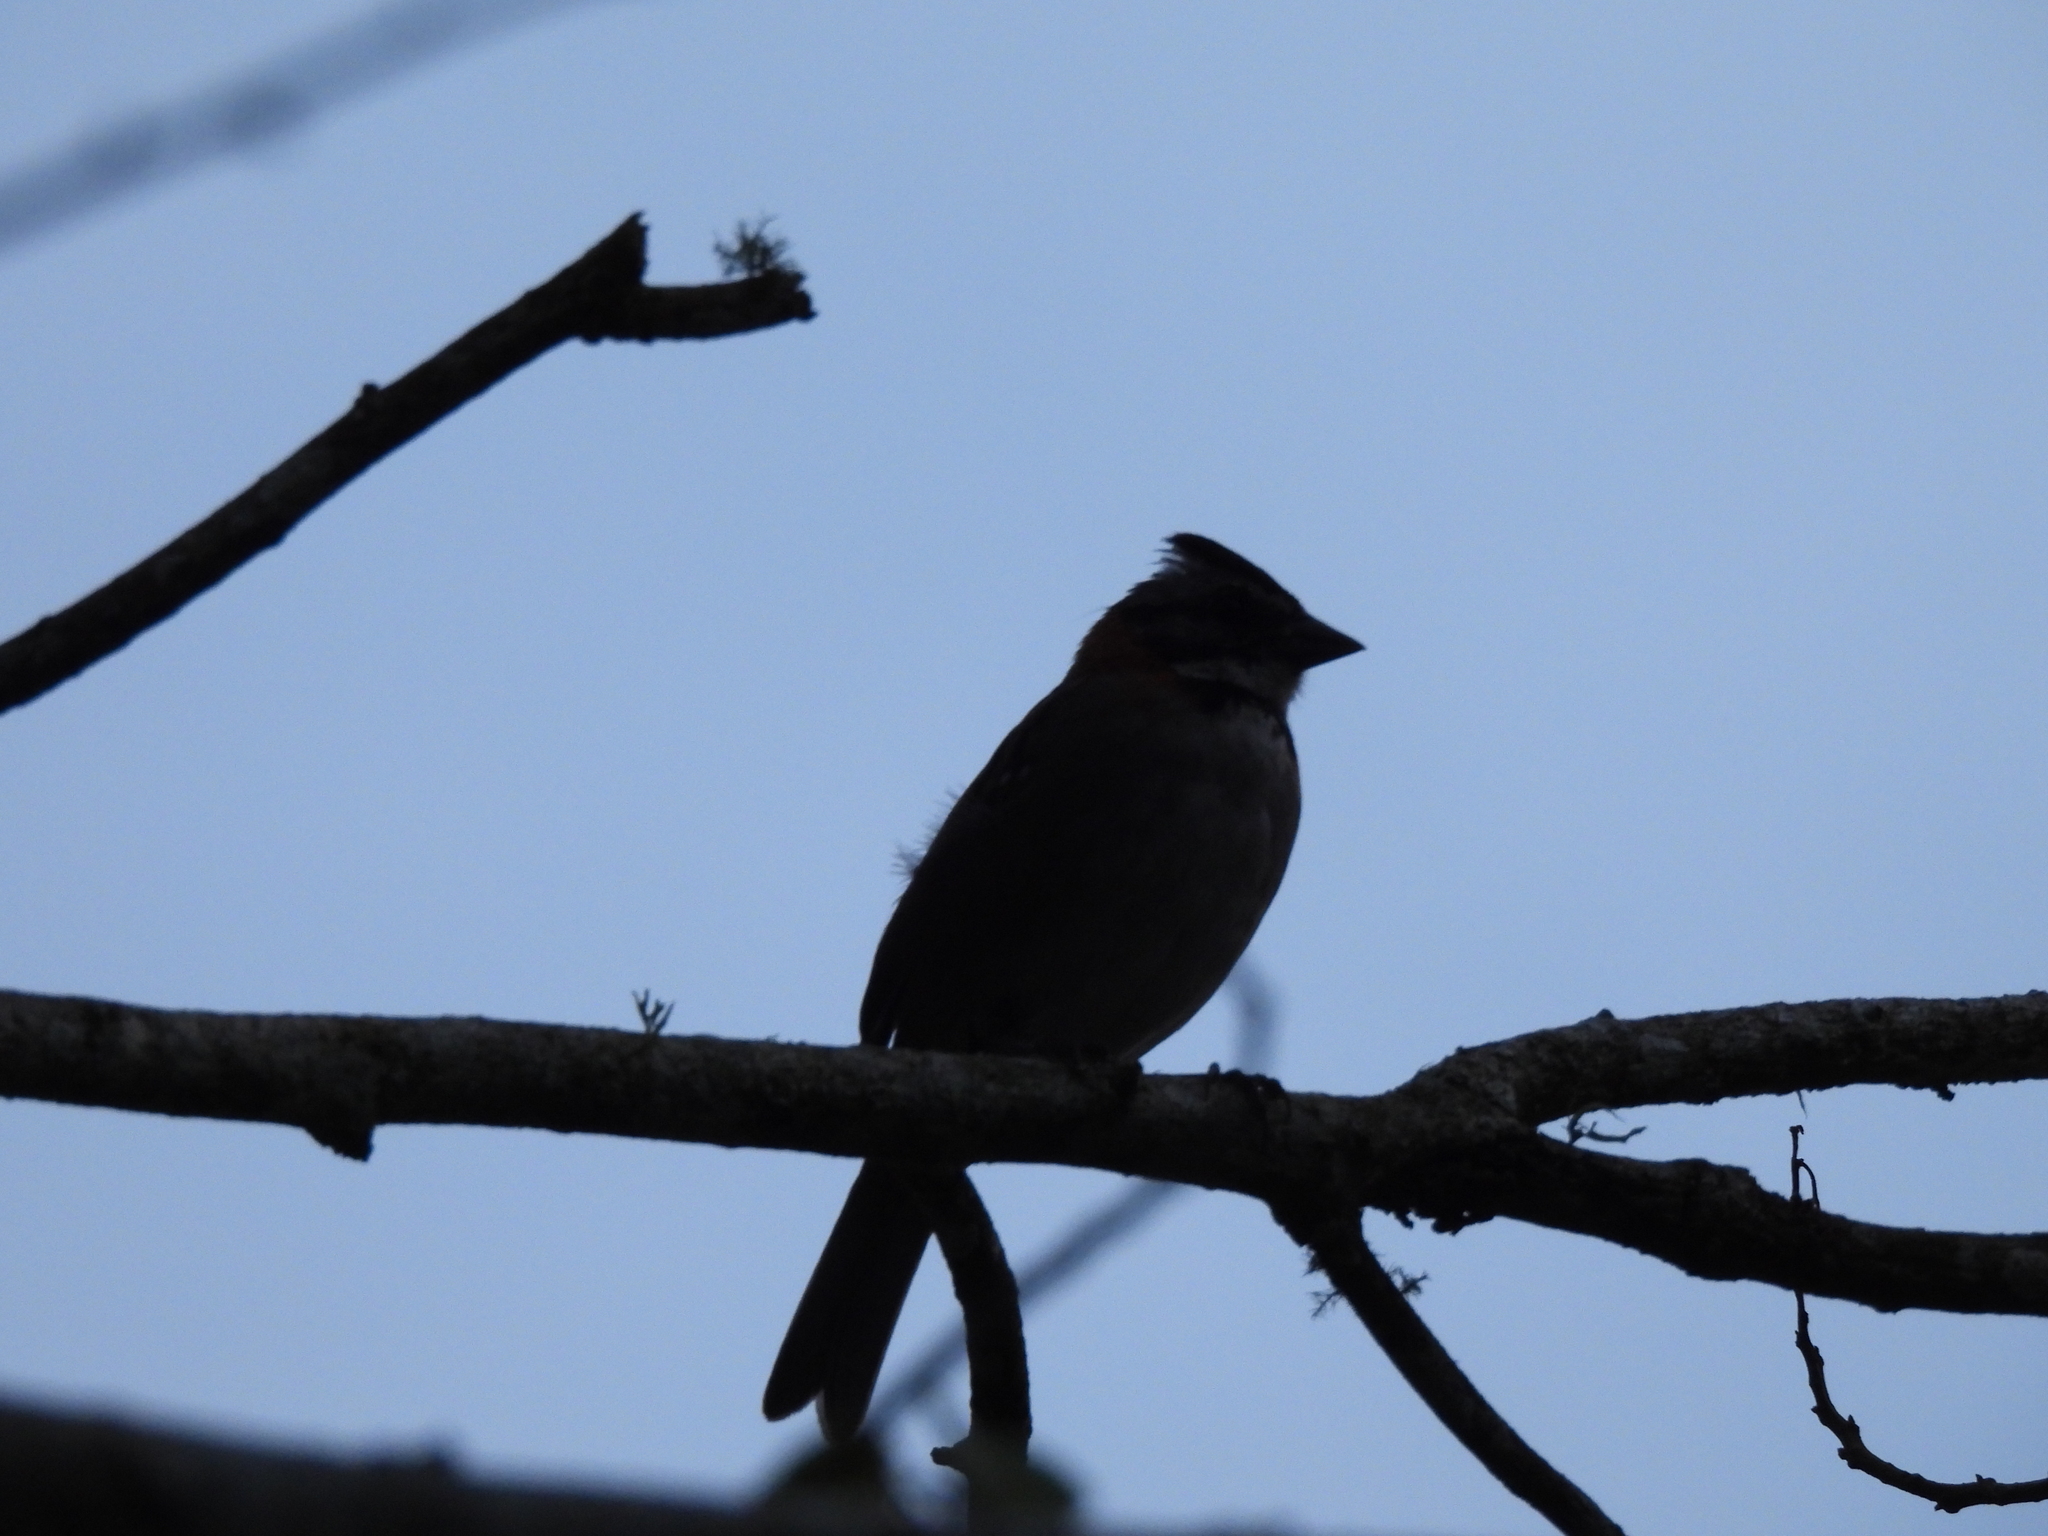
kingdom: Animalia
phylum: Chordata
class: Aves
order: Passeriformes
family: Passerellidae
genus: Zonotrichia
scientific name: Zonotrichia capensis
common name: Rufous-collared sparrow
